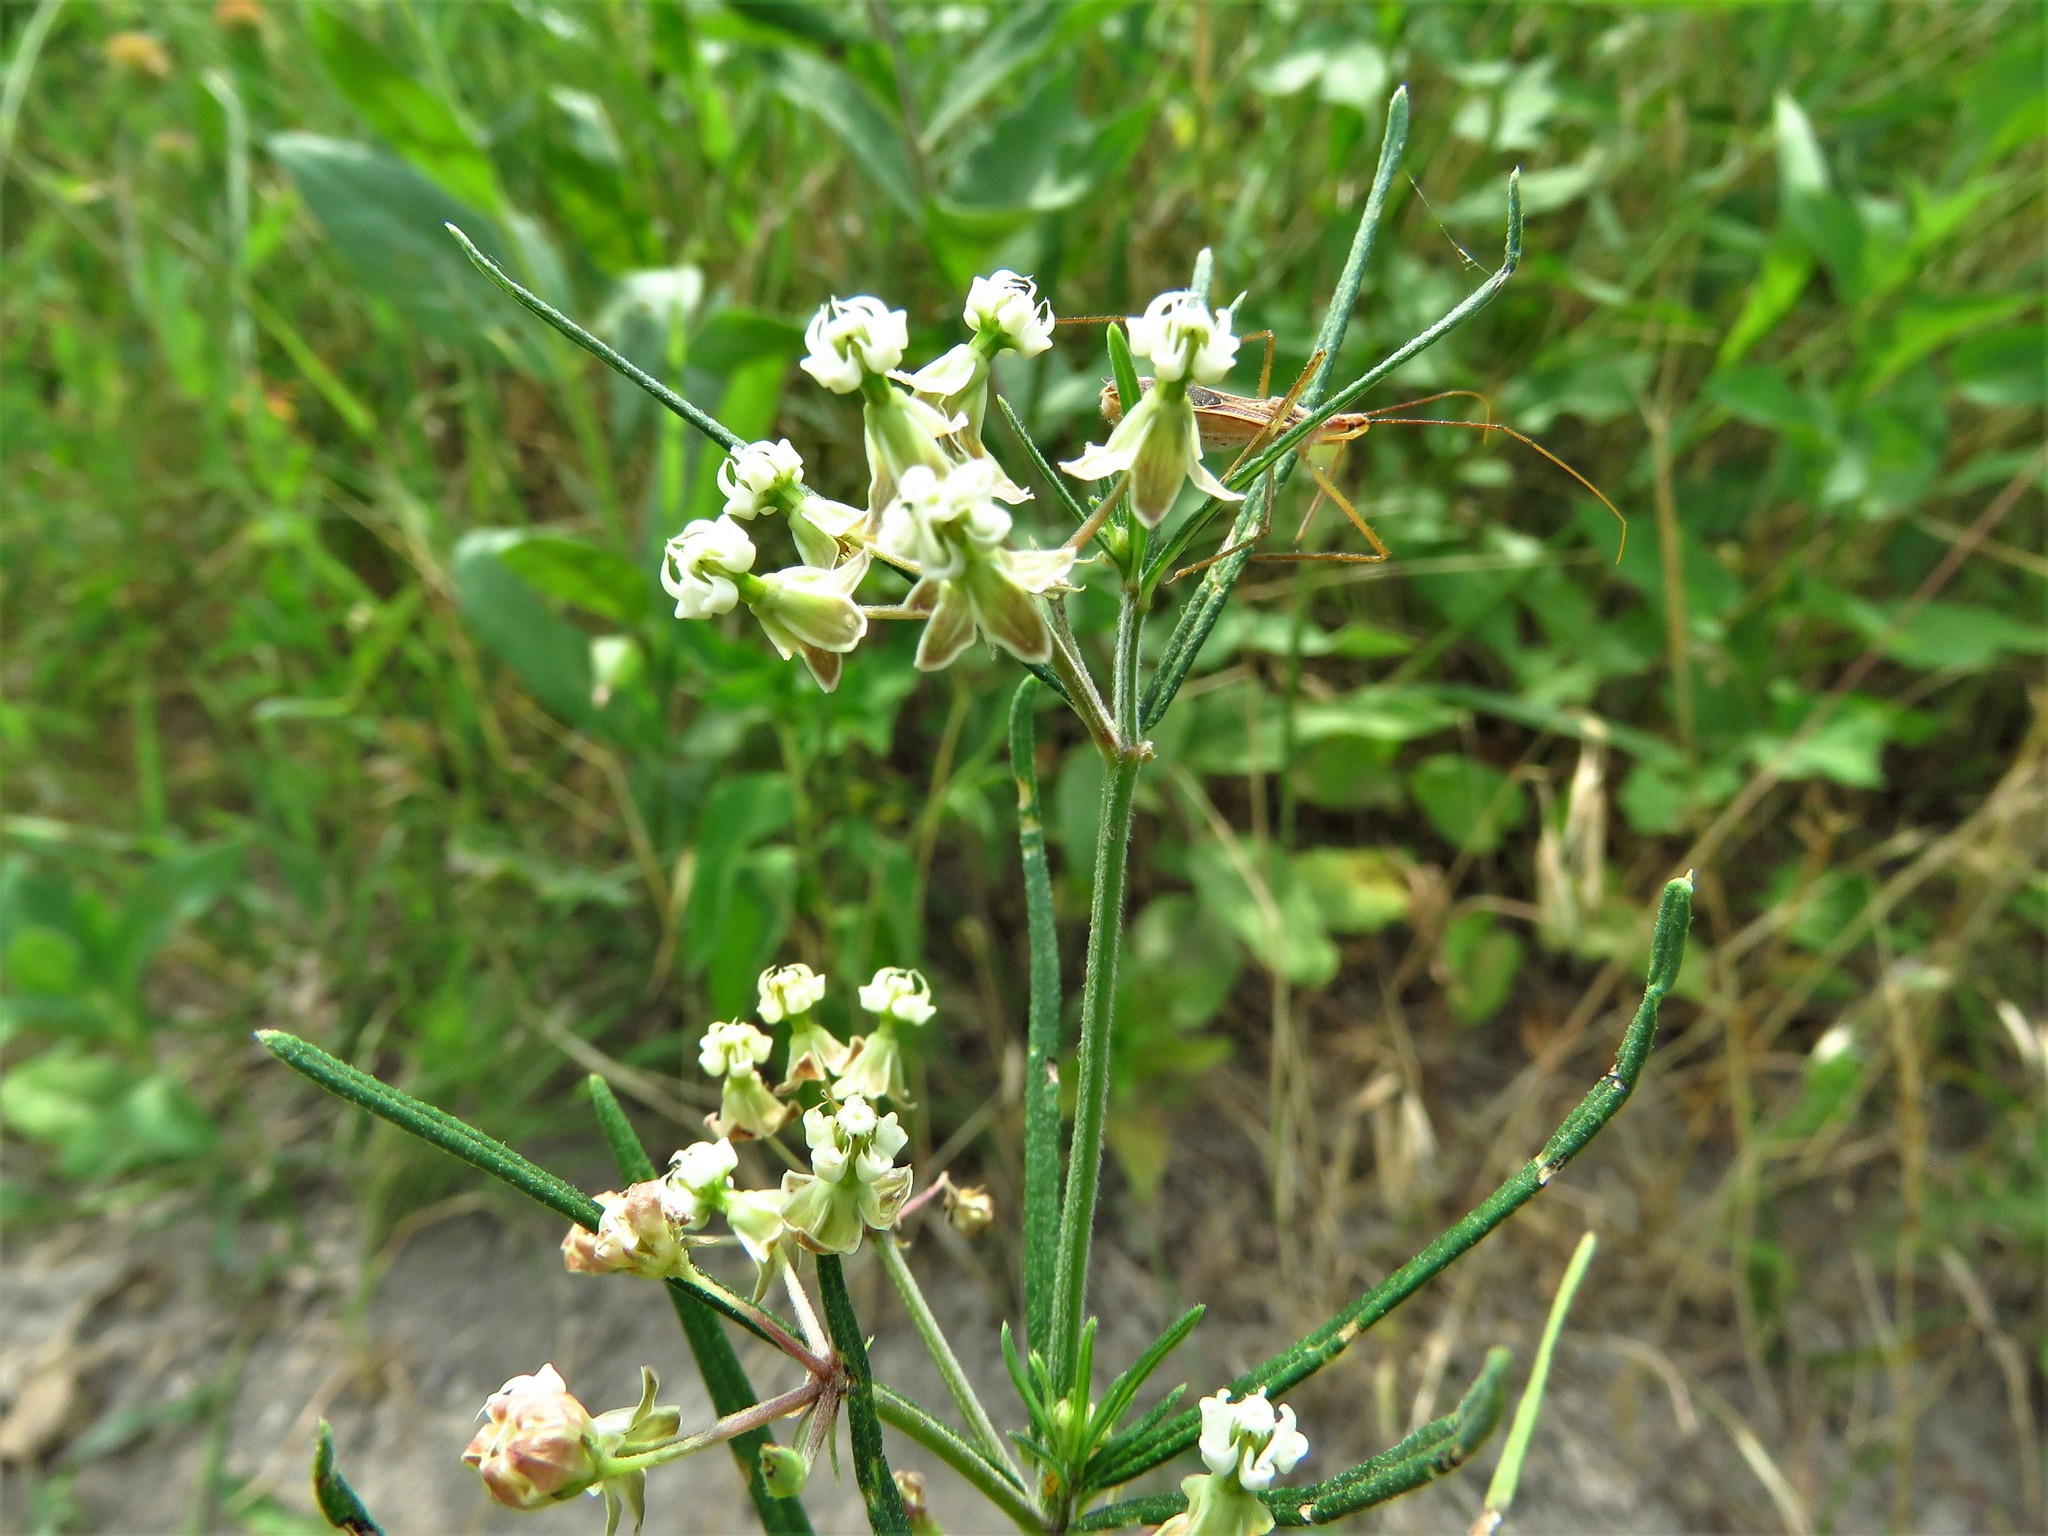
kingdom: Plantae
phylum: Tracheophyta
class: Magnoliopsida
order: Gentianales
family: Apocynaceae
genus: Asclepias
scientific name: Asclepias verticillata
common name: Eastern whorled milkweed
